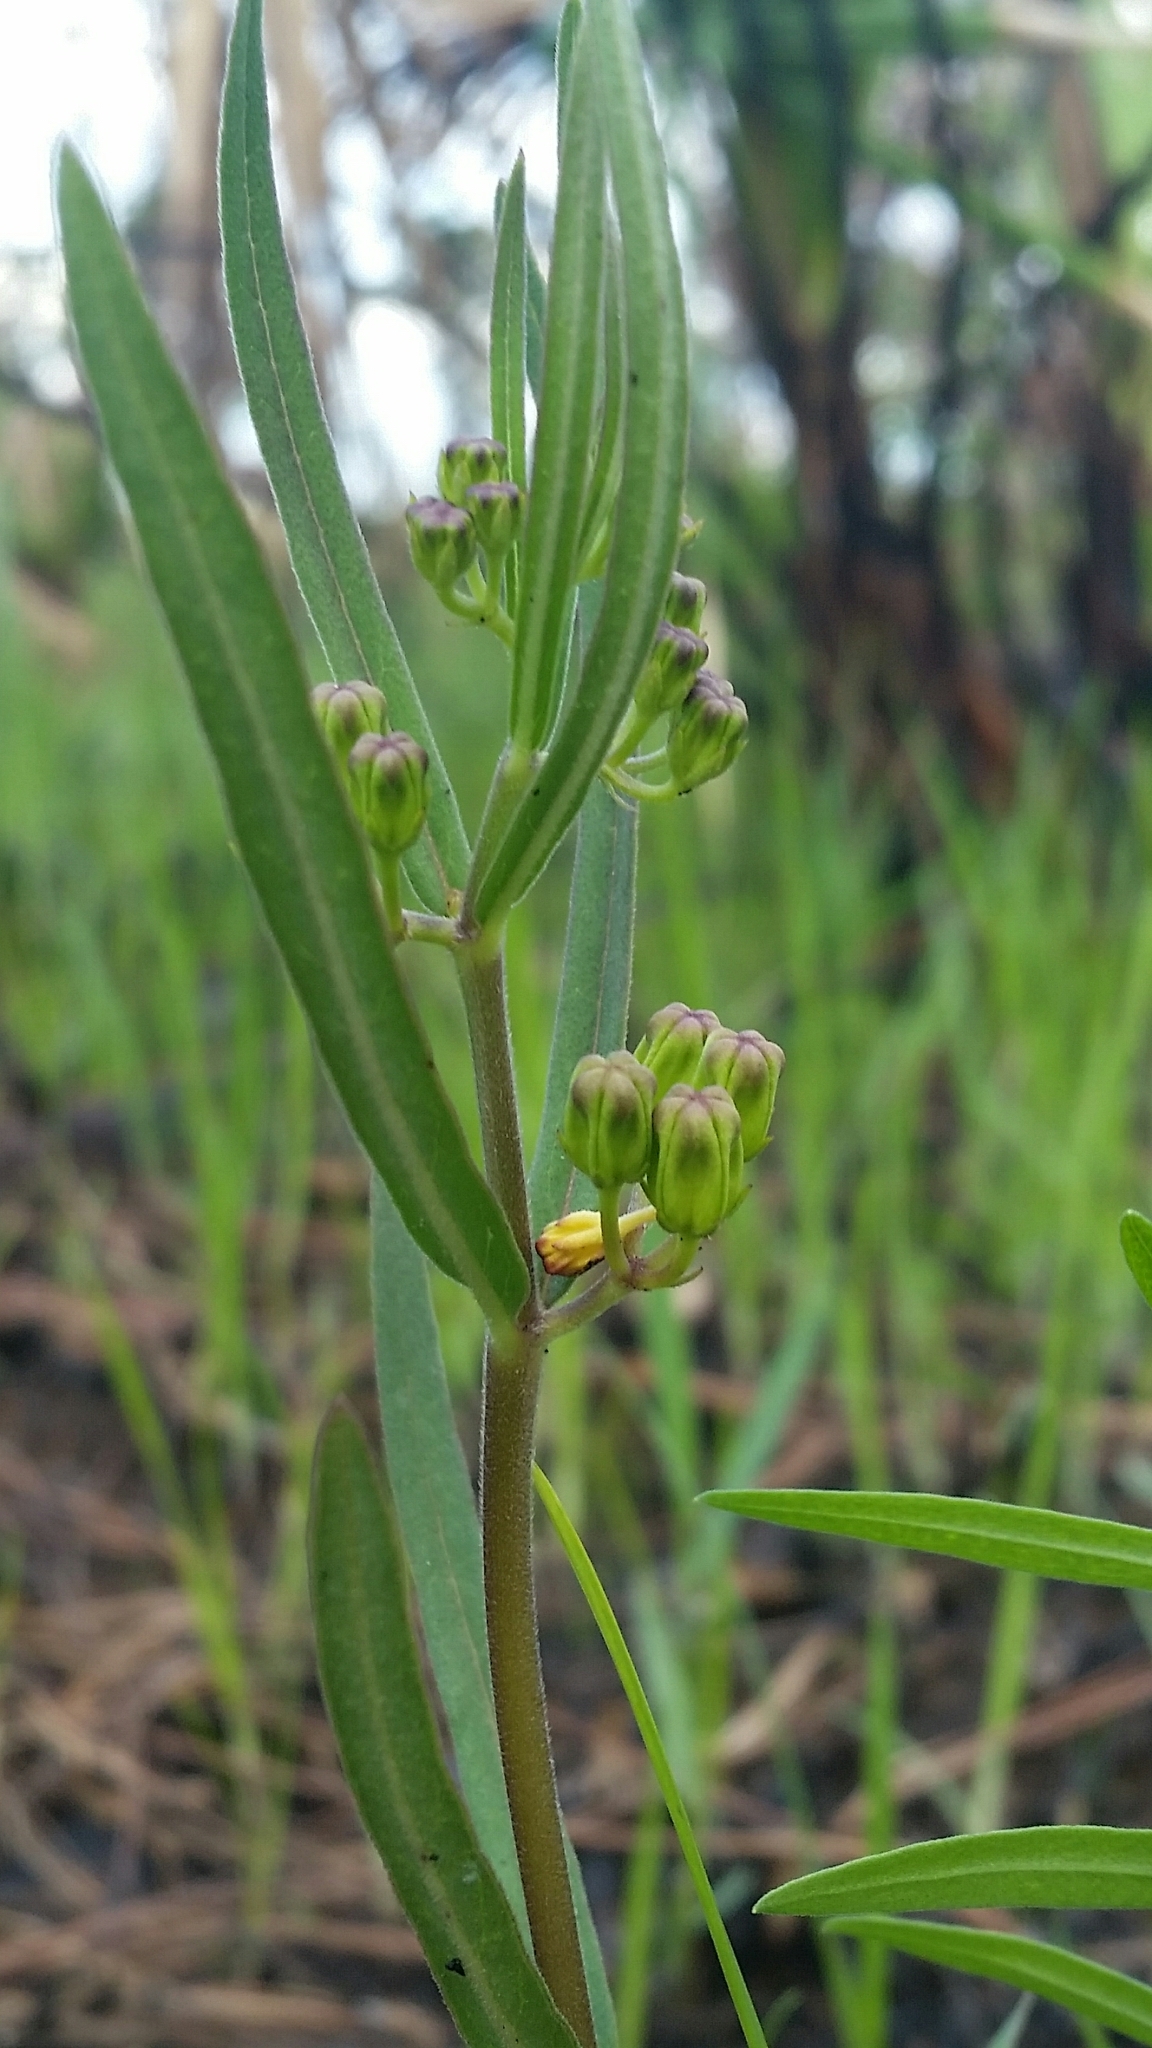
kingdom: Plantae
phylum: Tracheophyta
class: Magnoliopsida
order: Gentianales
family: Apocynaceae
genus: Asclepias
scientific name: Asclepias pedicellata
